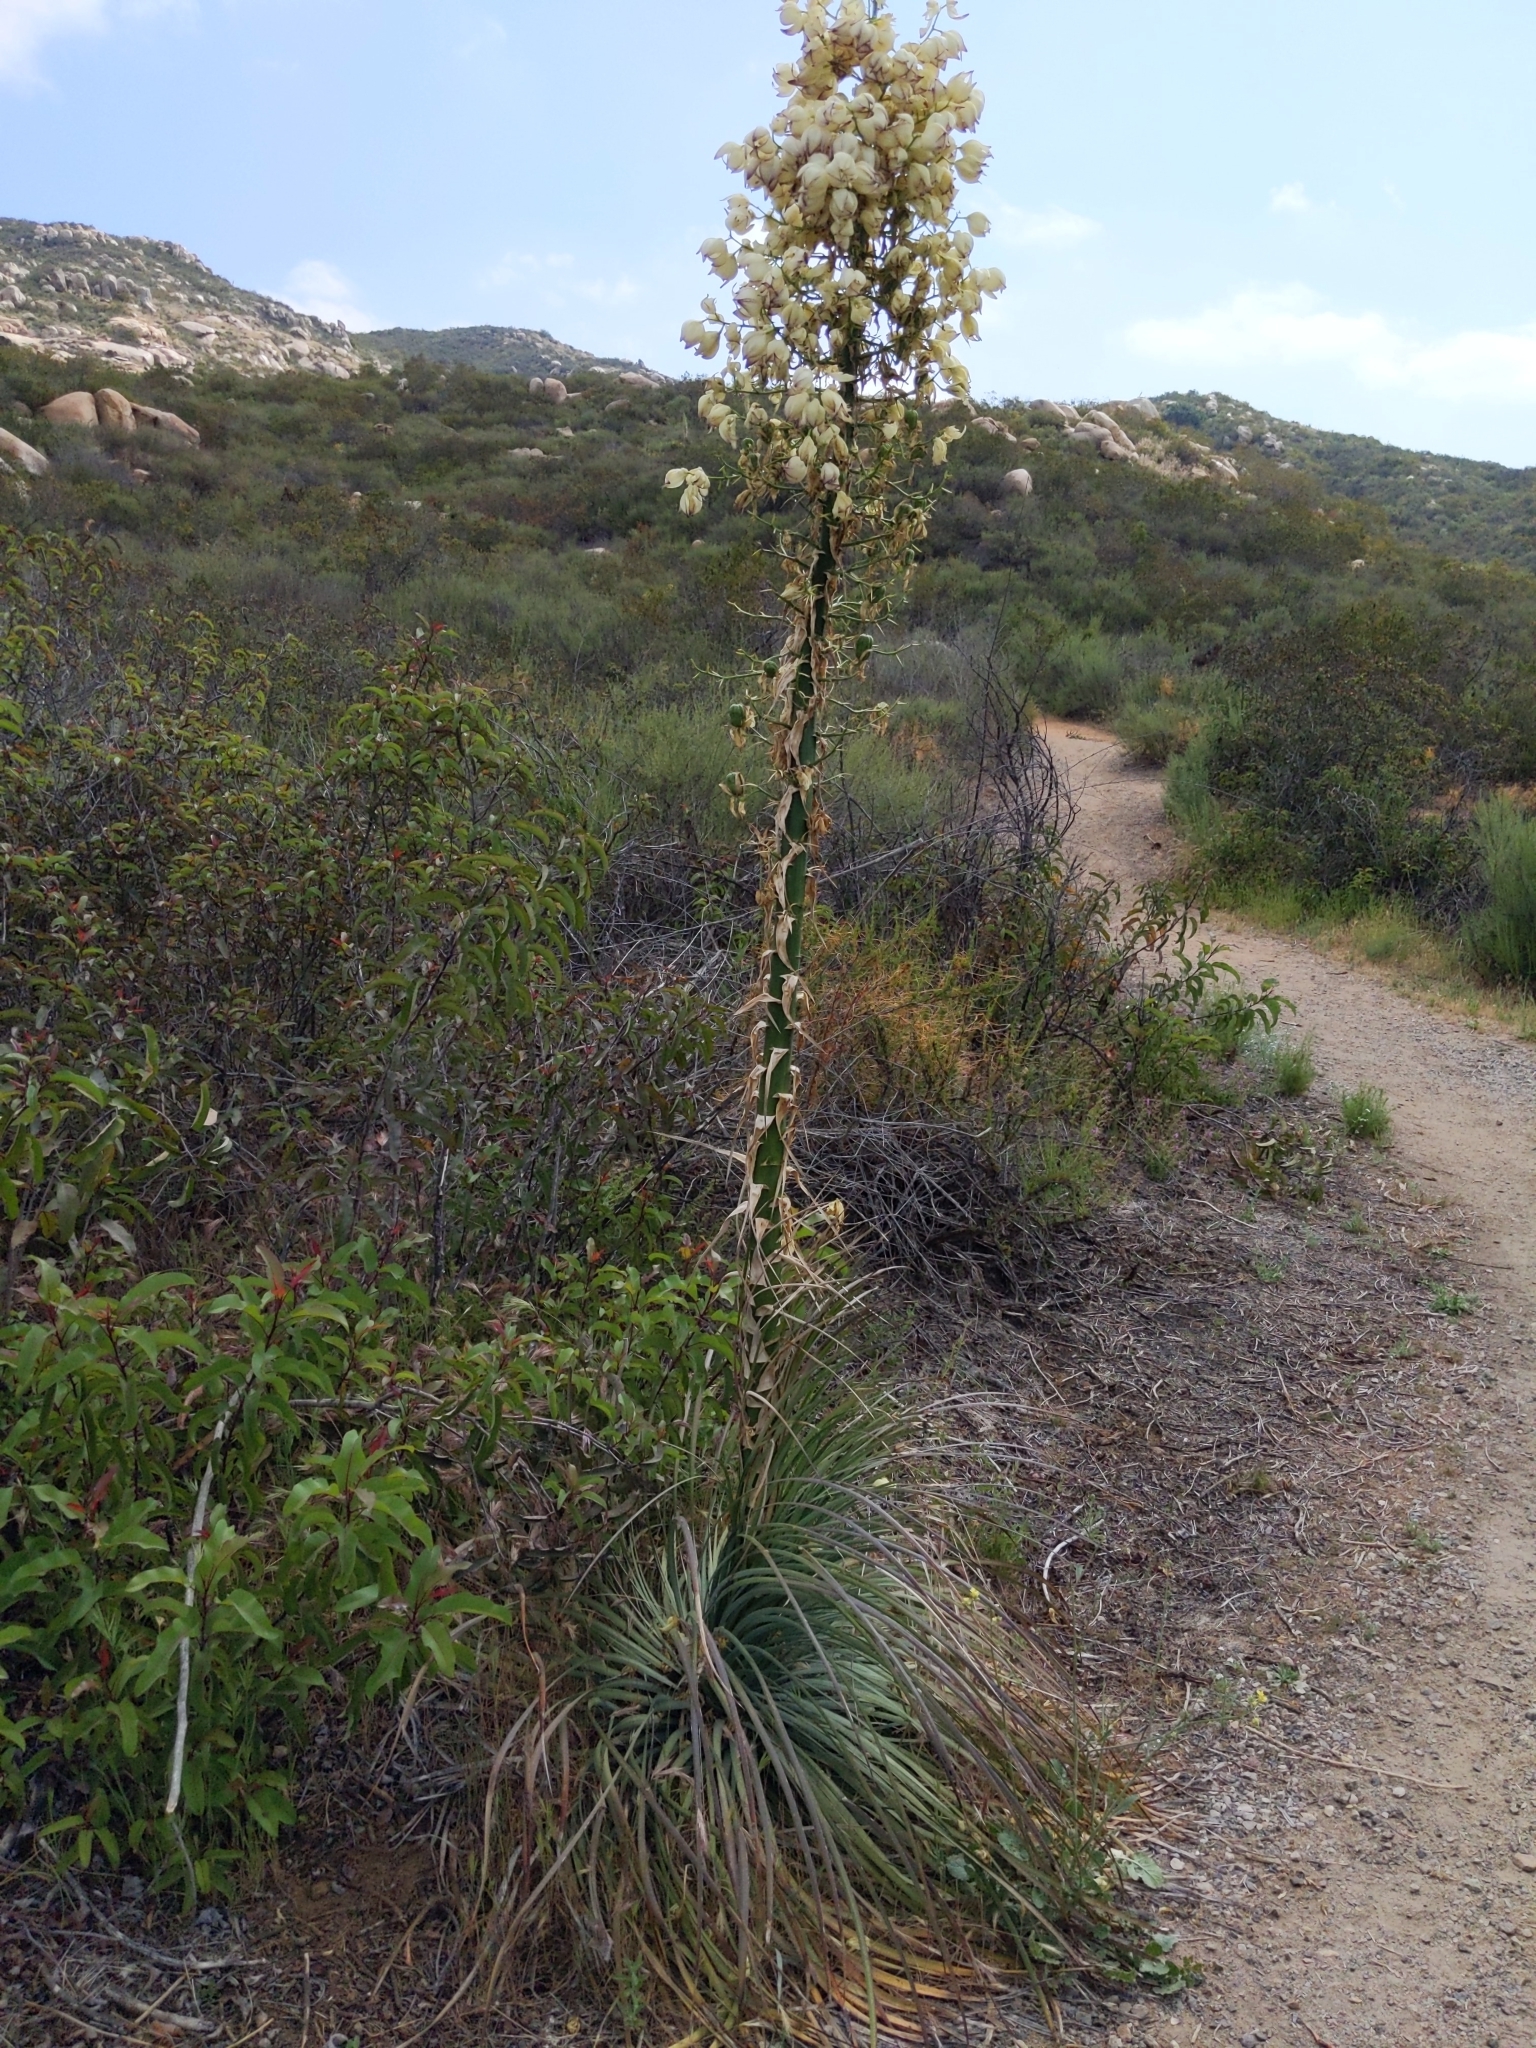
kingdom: Plantae
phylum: Tracheophyta
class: Liliopsida
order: Asparagales
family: Asparagaceae
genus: Hesperoyucca
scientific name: Hesperoyucca whipplei
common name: Our lord's-candle
